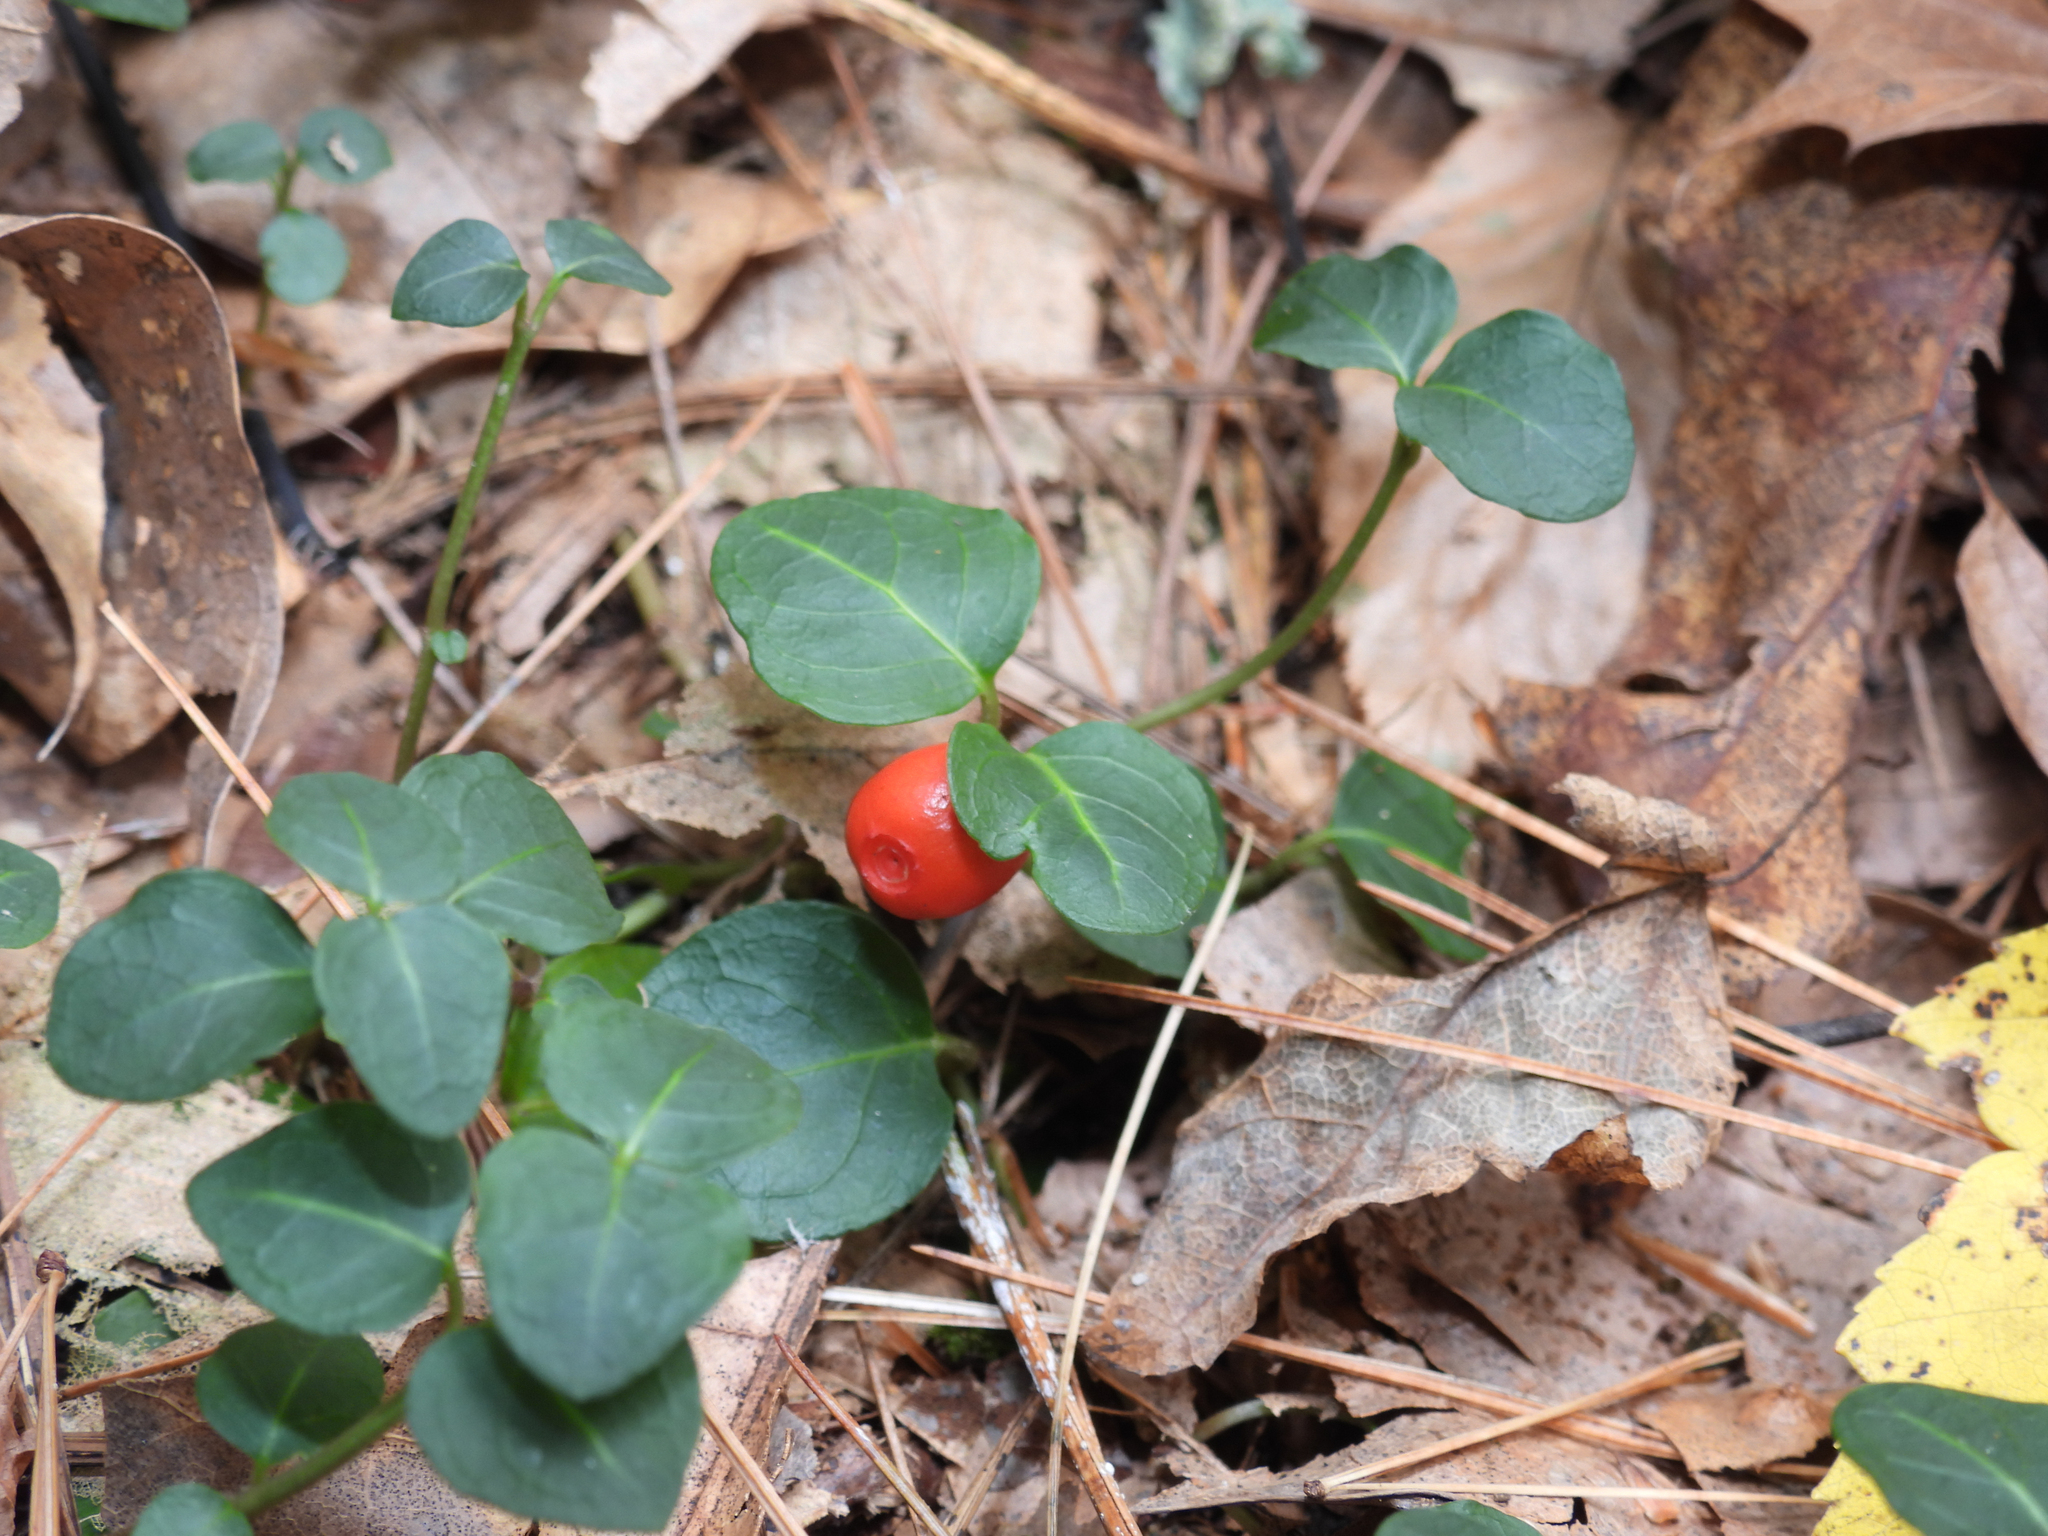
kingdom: Plantae
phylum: Tracheophyta
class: Magnoliopsida
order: Gentianales
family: Rubiaceae
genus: Mitchella
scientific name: Mitchella repens
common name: Partridge-berry
